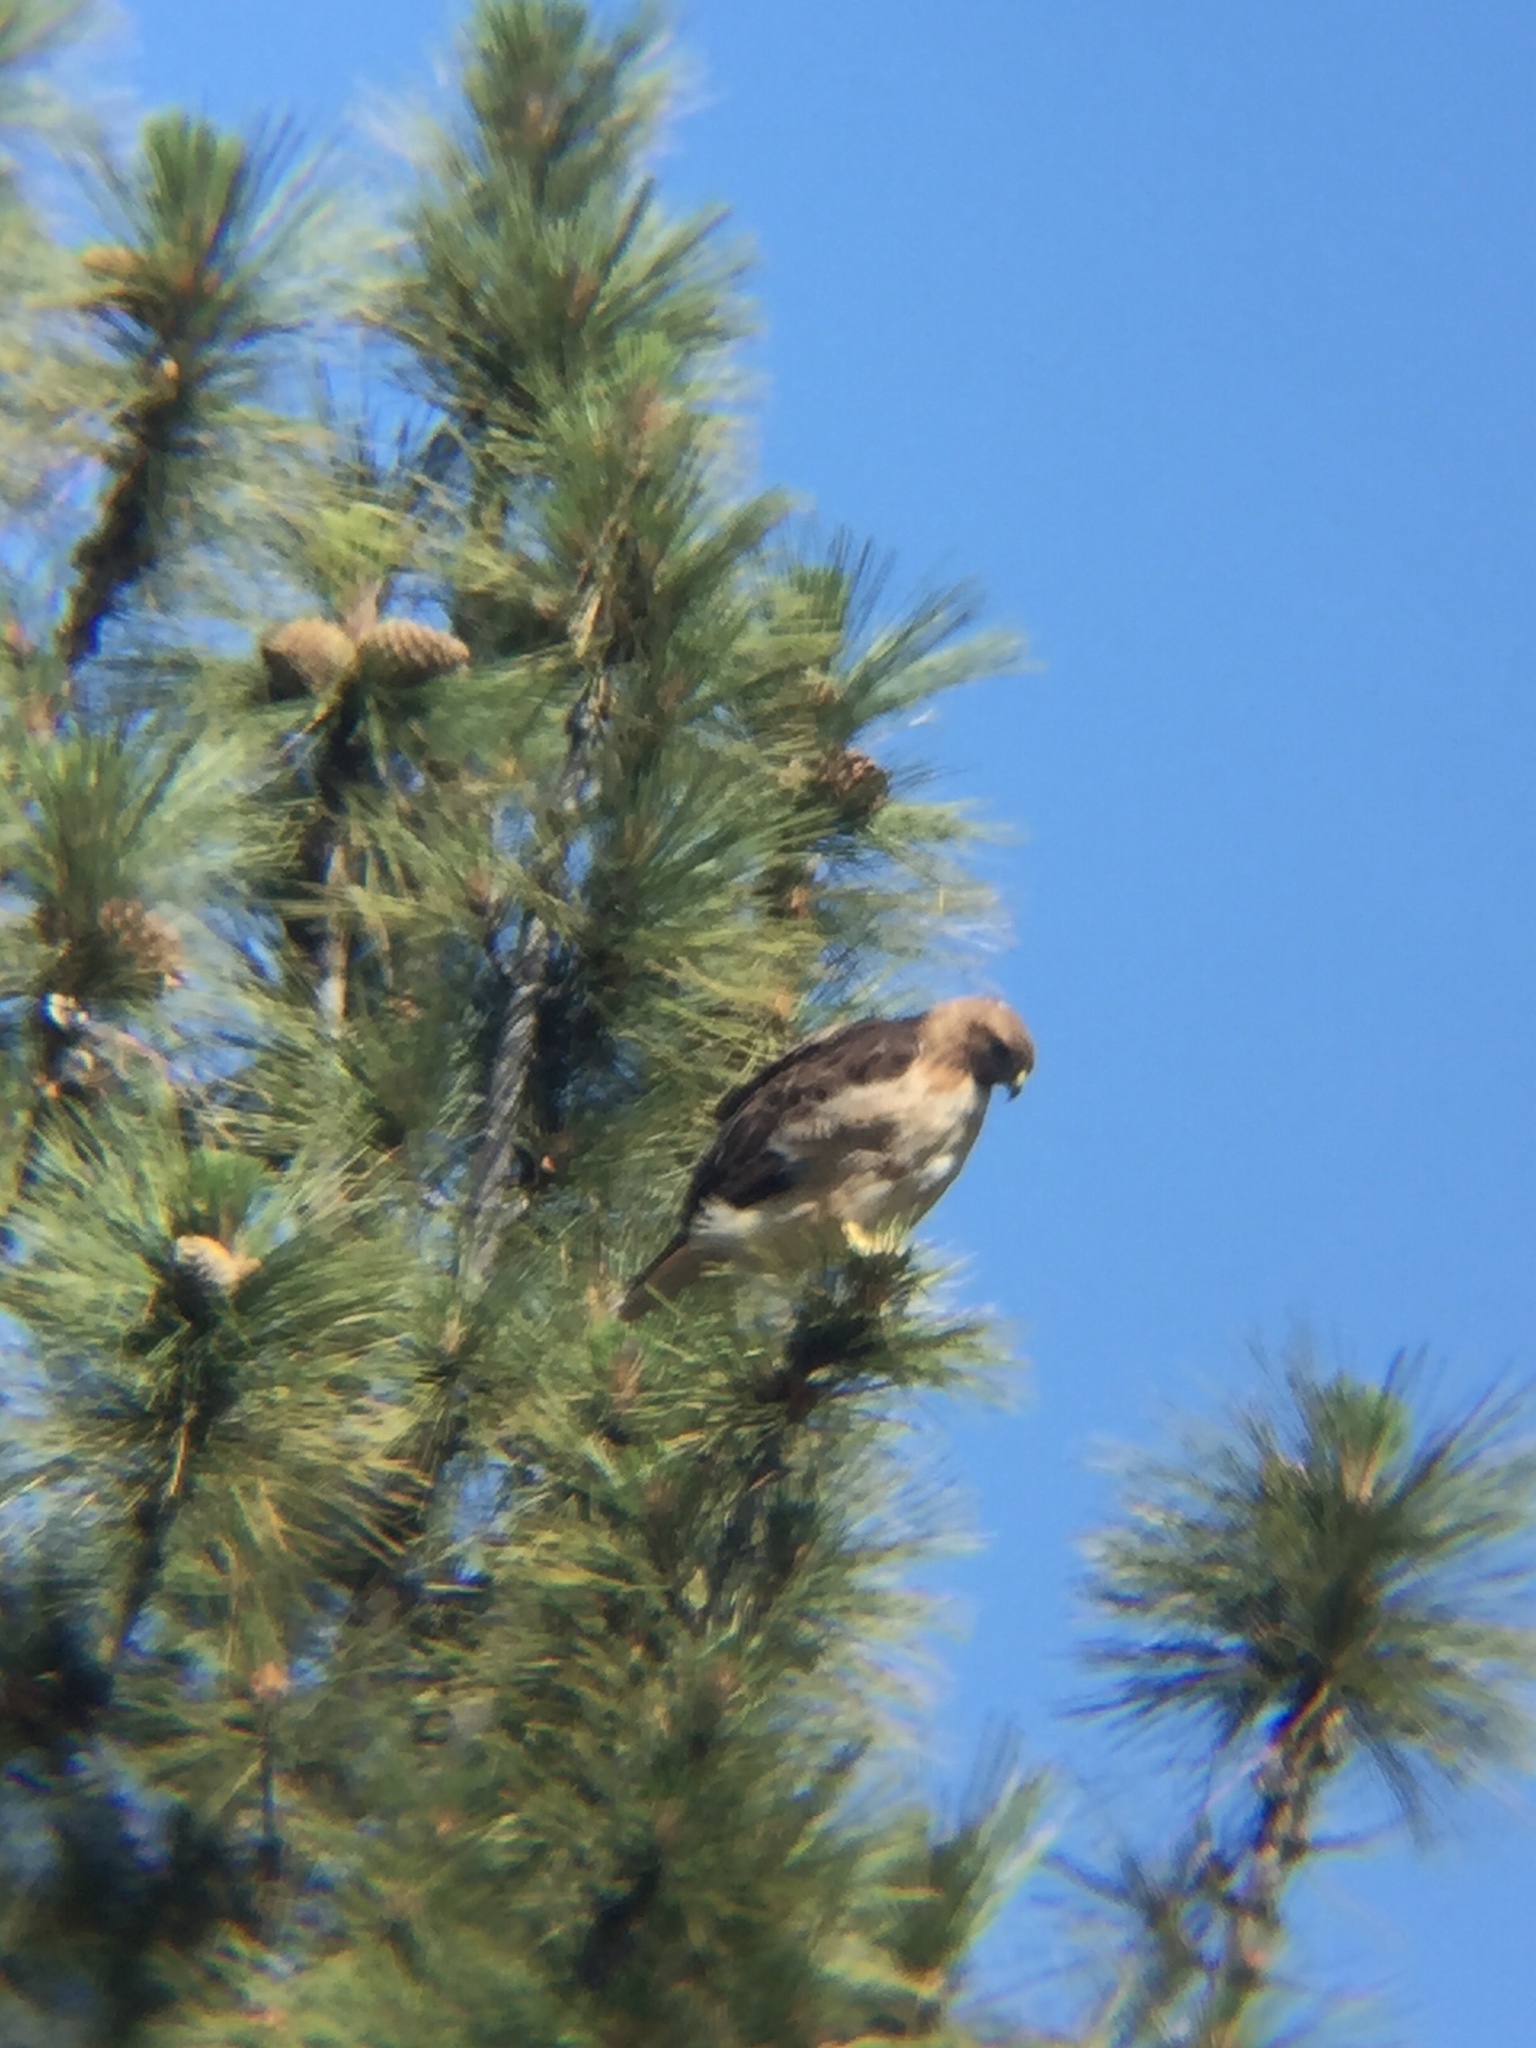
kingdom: Animalia
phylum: Chordata
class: Aves
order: Accipitriformes
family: Accipitridae
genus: Buteo
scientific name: Buteo jamaicensis
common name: Red-tailed hawk
